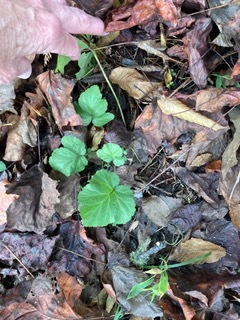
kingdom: Plantae
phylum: Tracheophyta
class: Magnoliopsida
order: Rosales
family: Rosaceae
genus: Geum
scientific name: Geum canadense
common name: White avens
